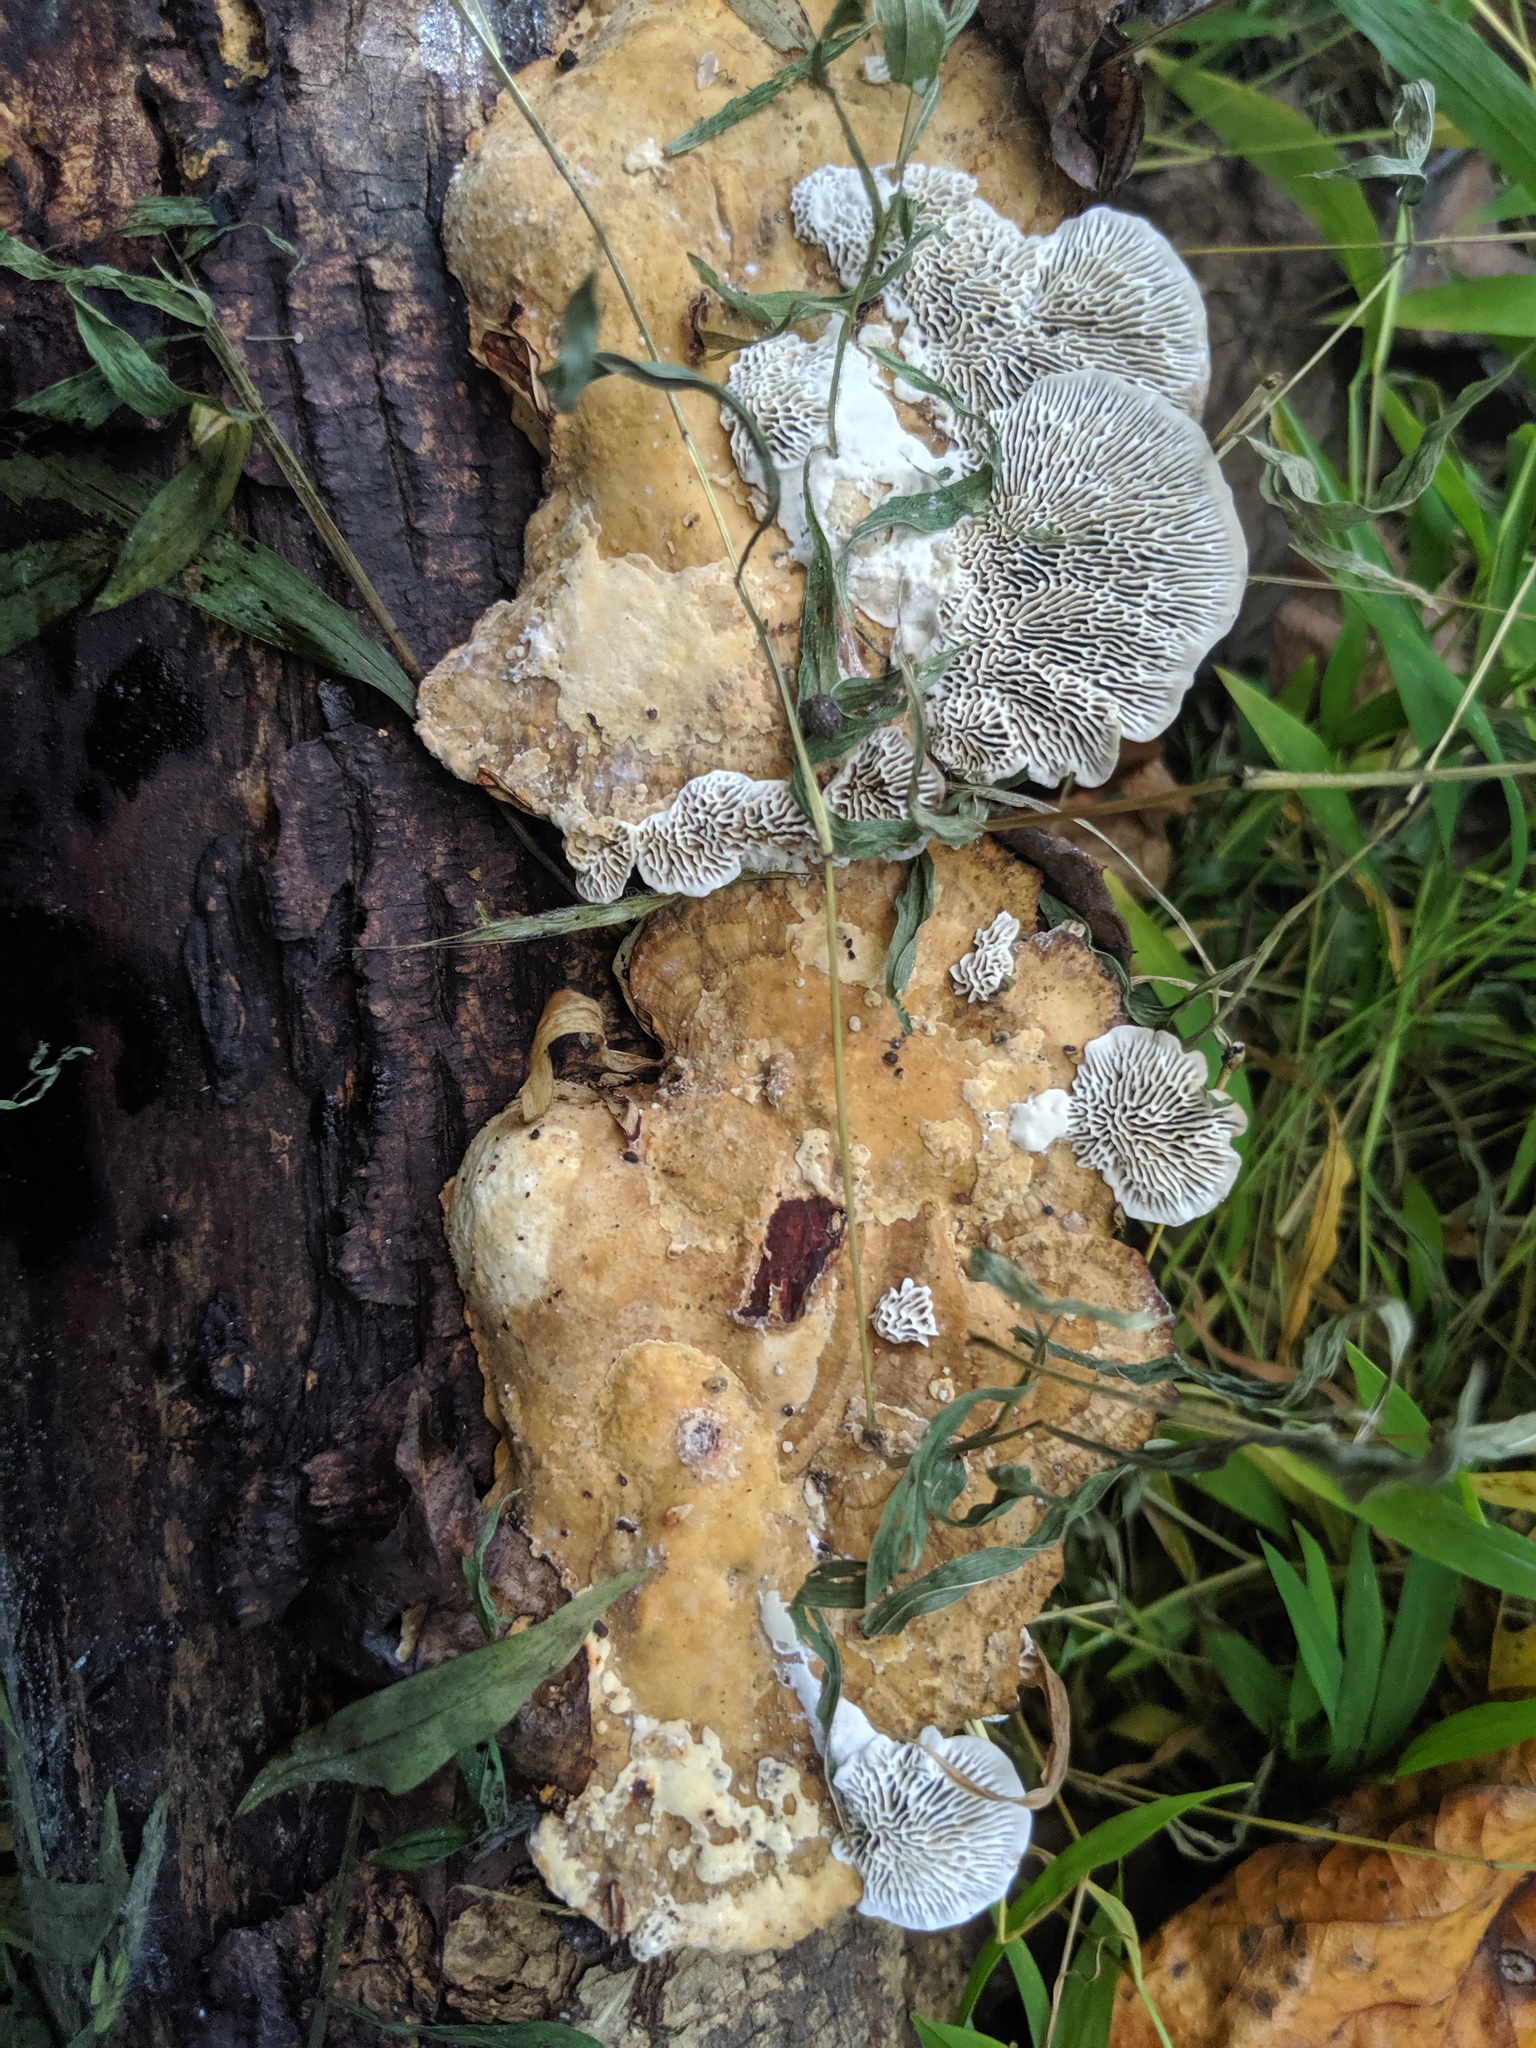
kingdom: Fungi
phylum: Basidiomycota
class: Agaricomycetes
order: Polyporales
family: Polyporaceae
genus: Daedaleopsis
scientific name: Daedaleopsis confragosa
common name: Blushing bracket
